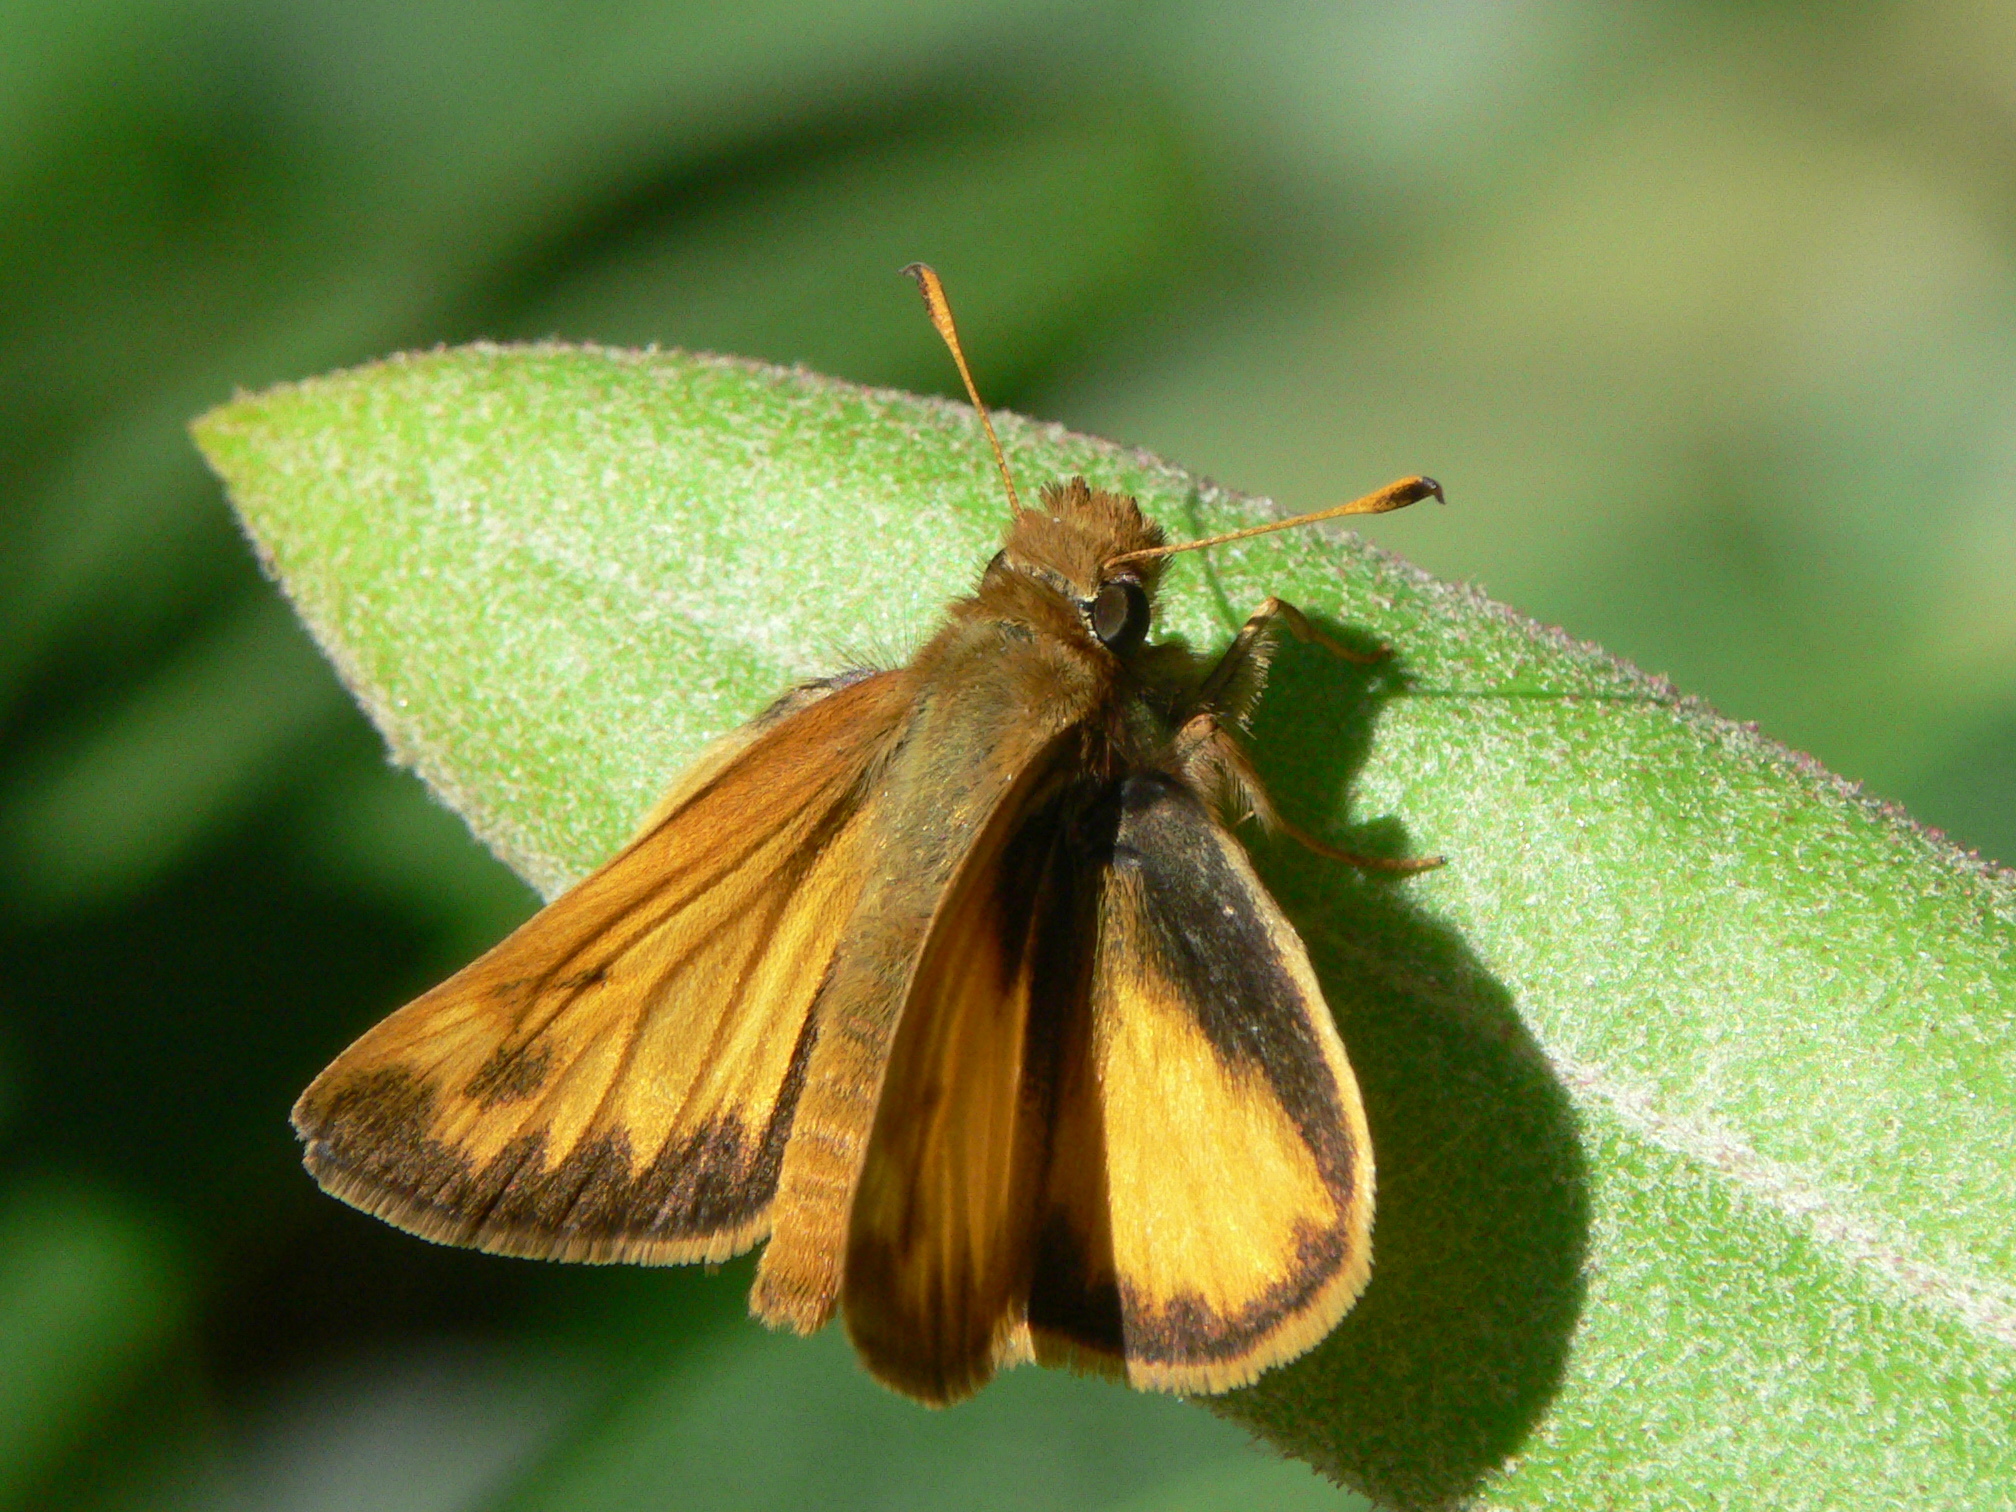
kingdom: Animalia
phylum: Arthropoda
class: Insecta
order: Lepidoptera
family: Hesperiidae
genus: Lon
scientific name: Lon zabulon
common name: Zabulon skipper
